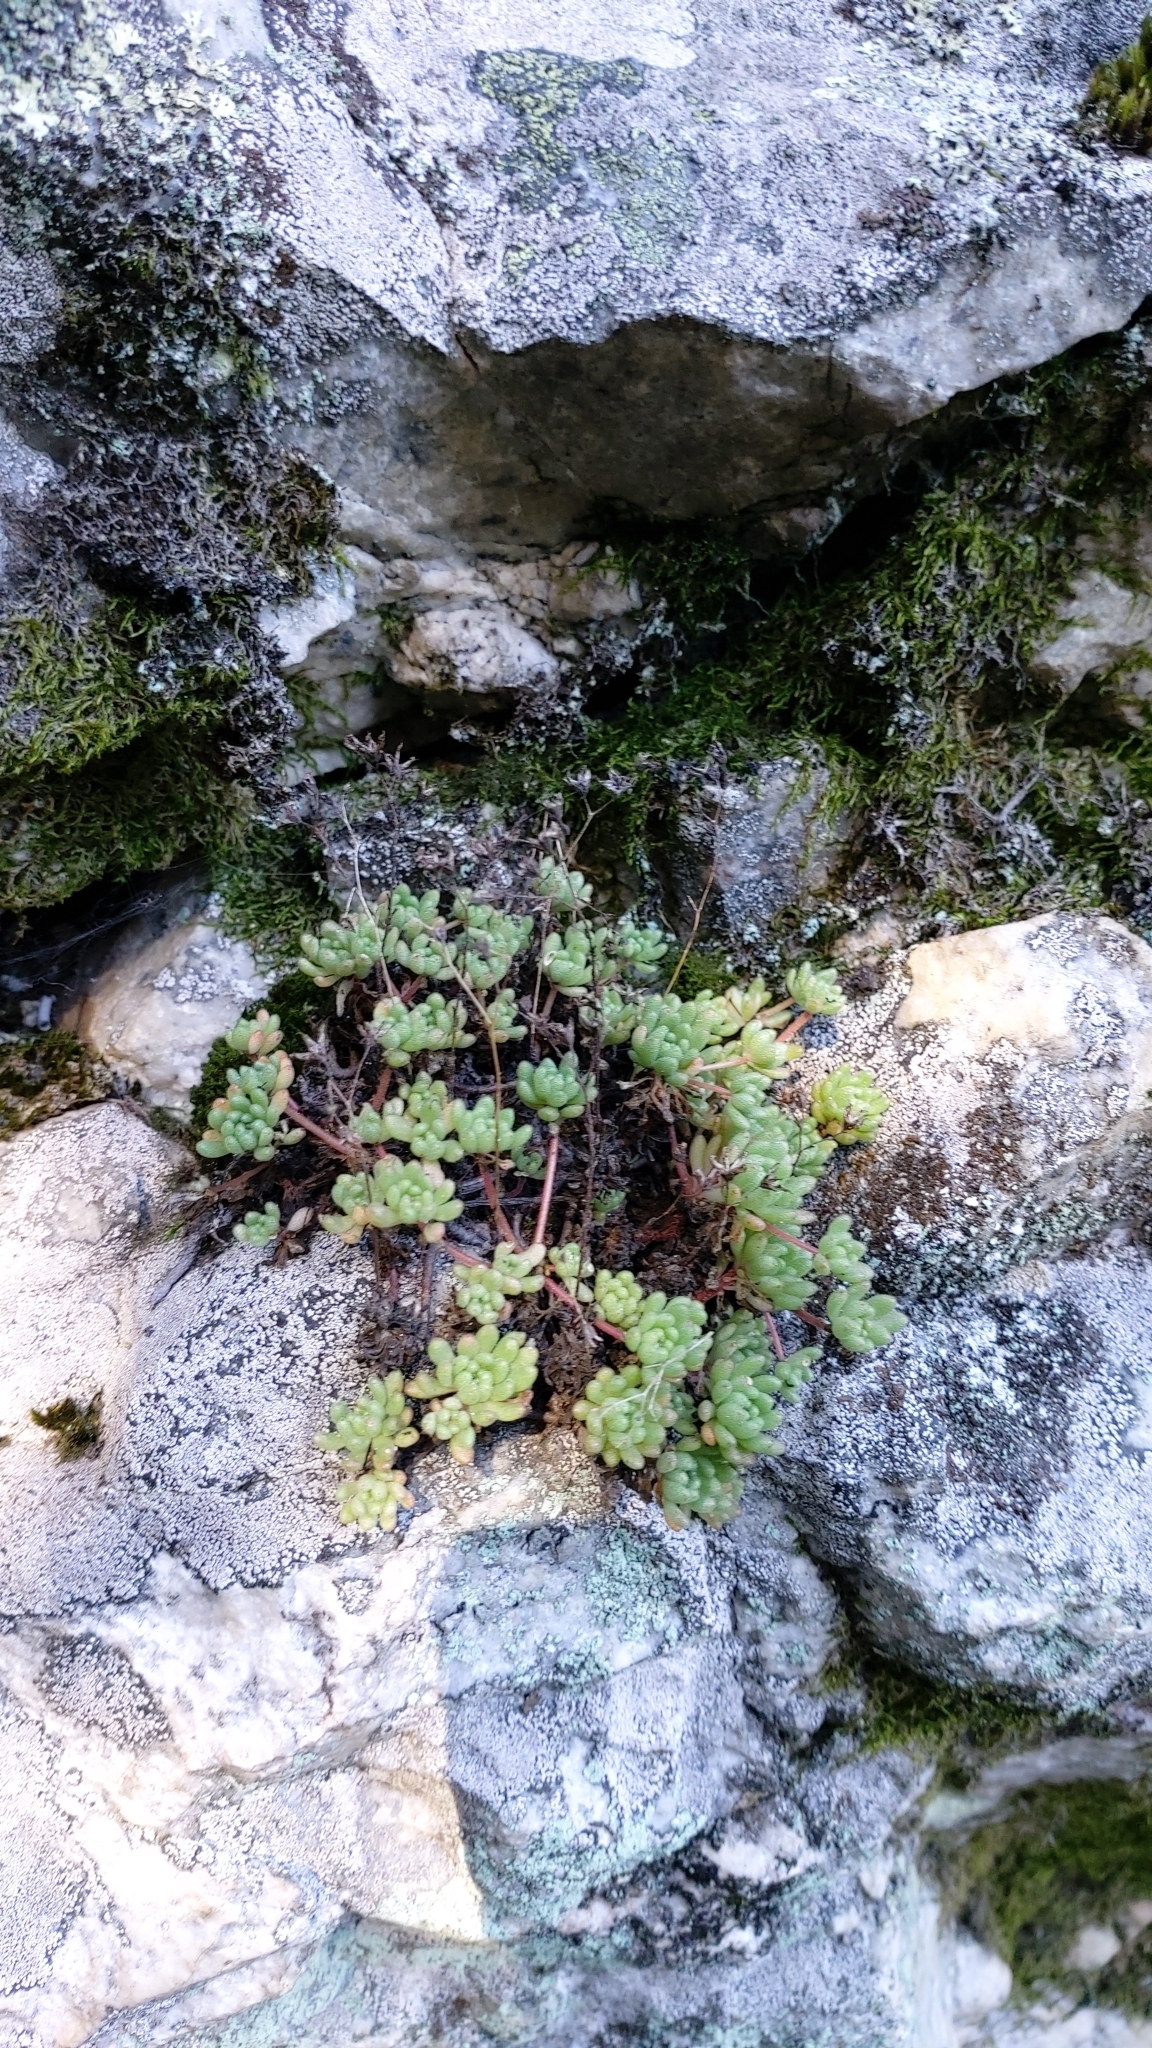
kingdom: Plantae
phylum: Tracheophyta
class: Magnoliopsida
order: Saxifragales
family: Crassulaceae
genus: Sedum
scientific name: Sedum hirsutum
